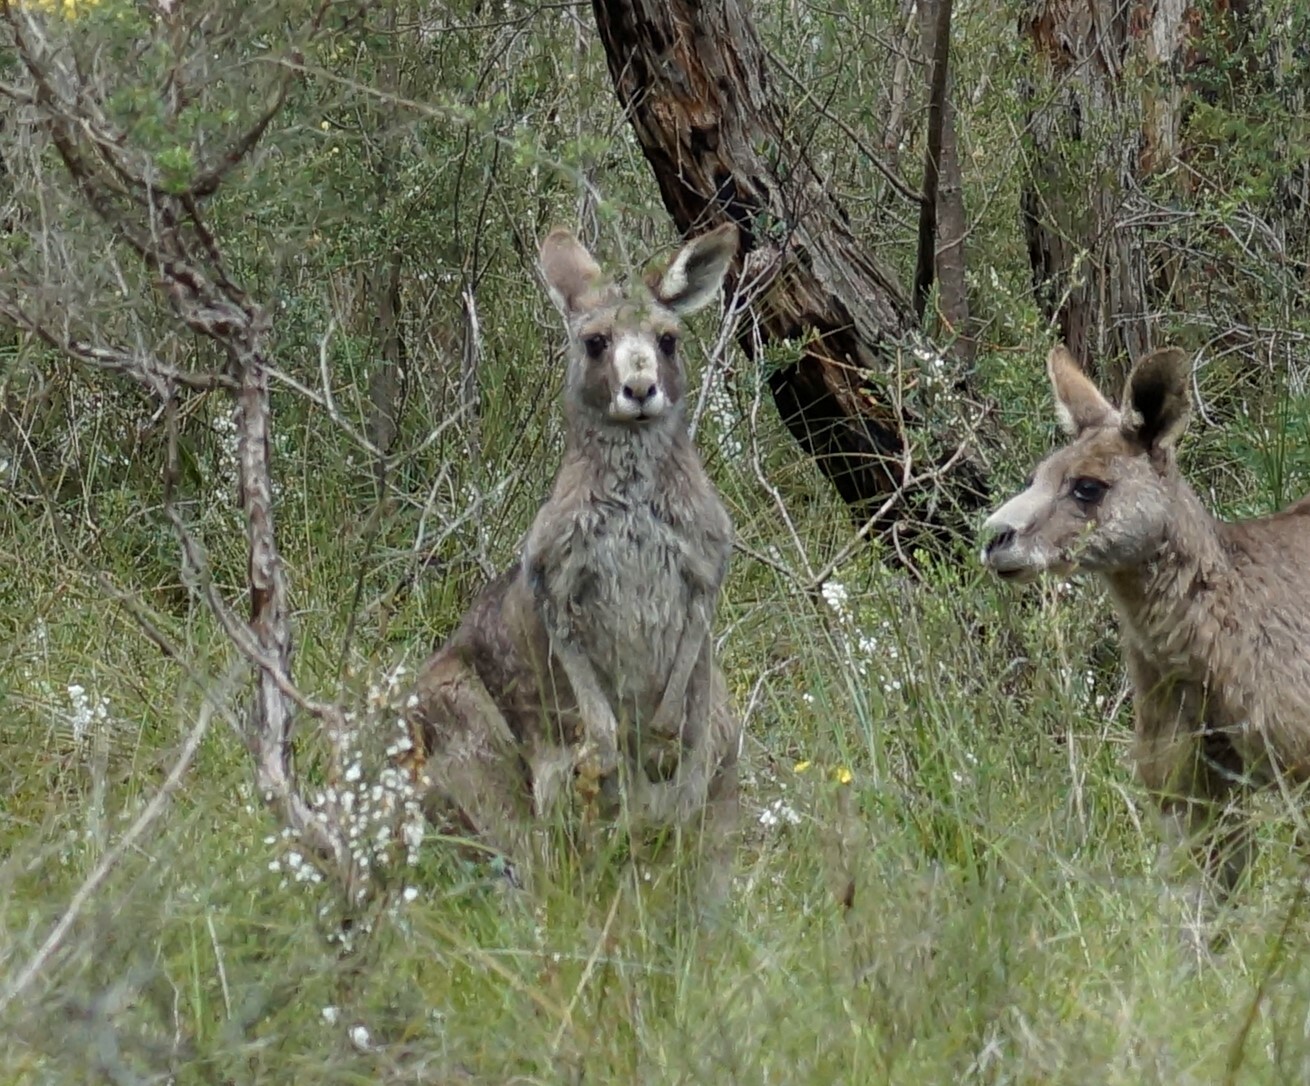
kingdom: Animalia
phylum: Chordata
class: Mammalia
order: Diprotodontia
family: Macropodidae
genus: Macropus
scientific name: Macropus giganteus
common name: Eastern grey kangaroo
